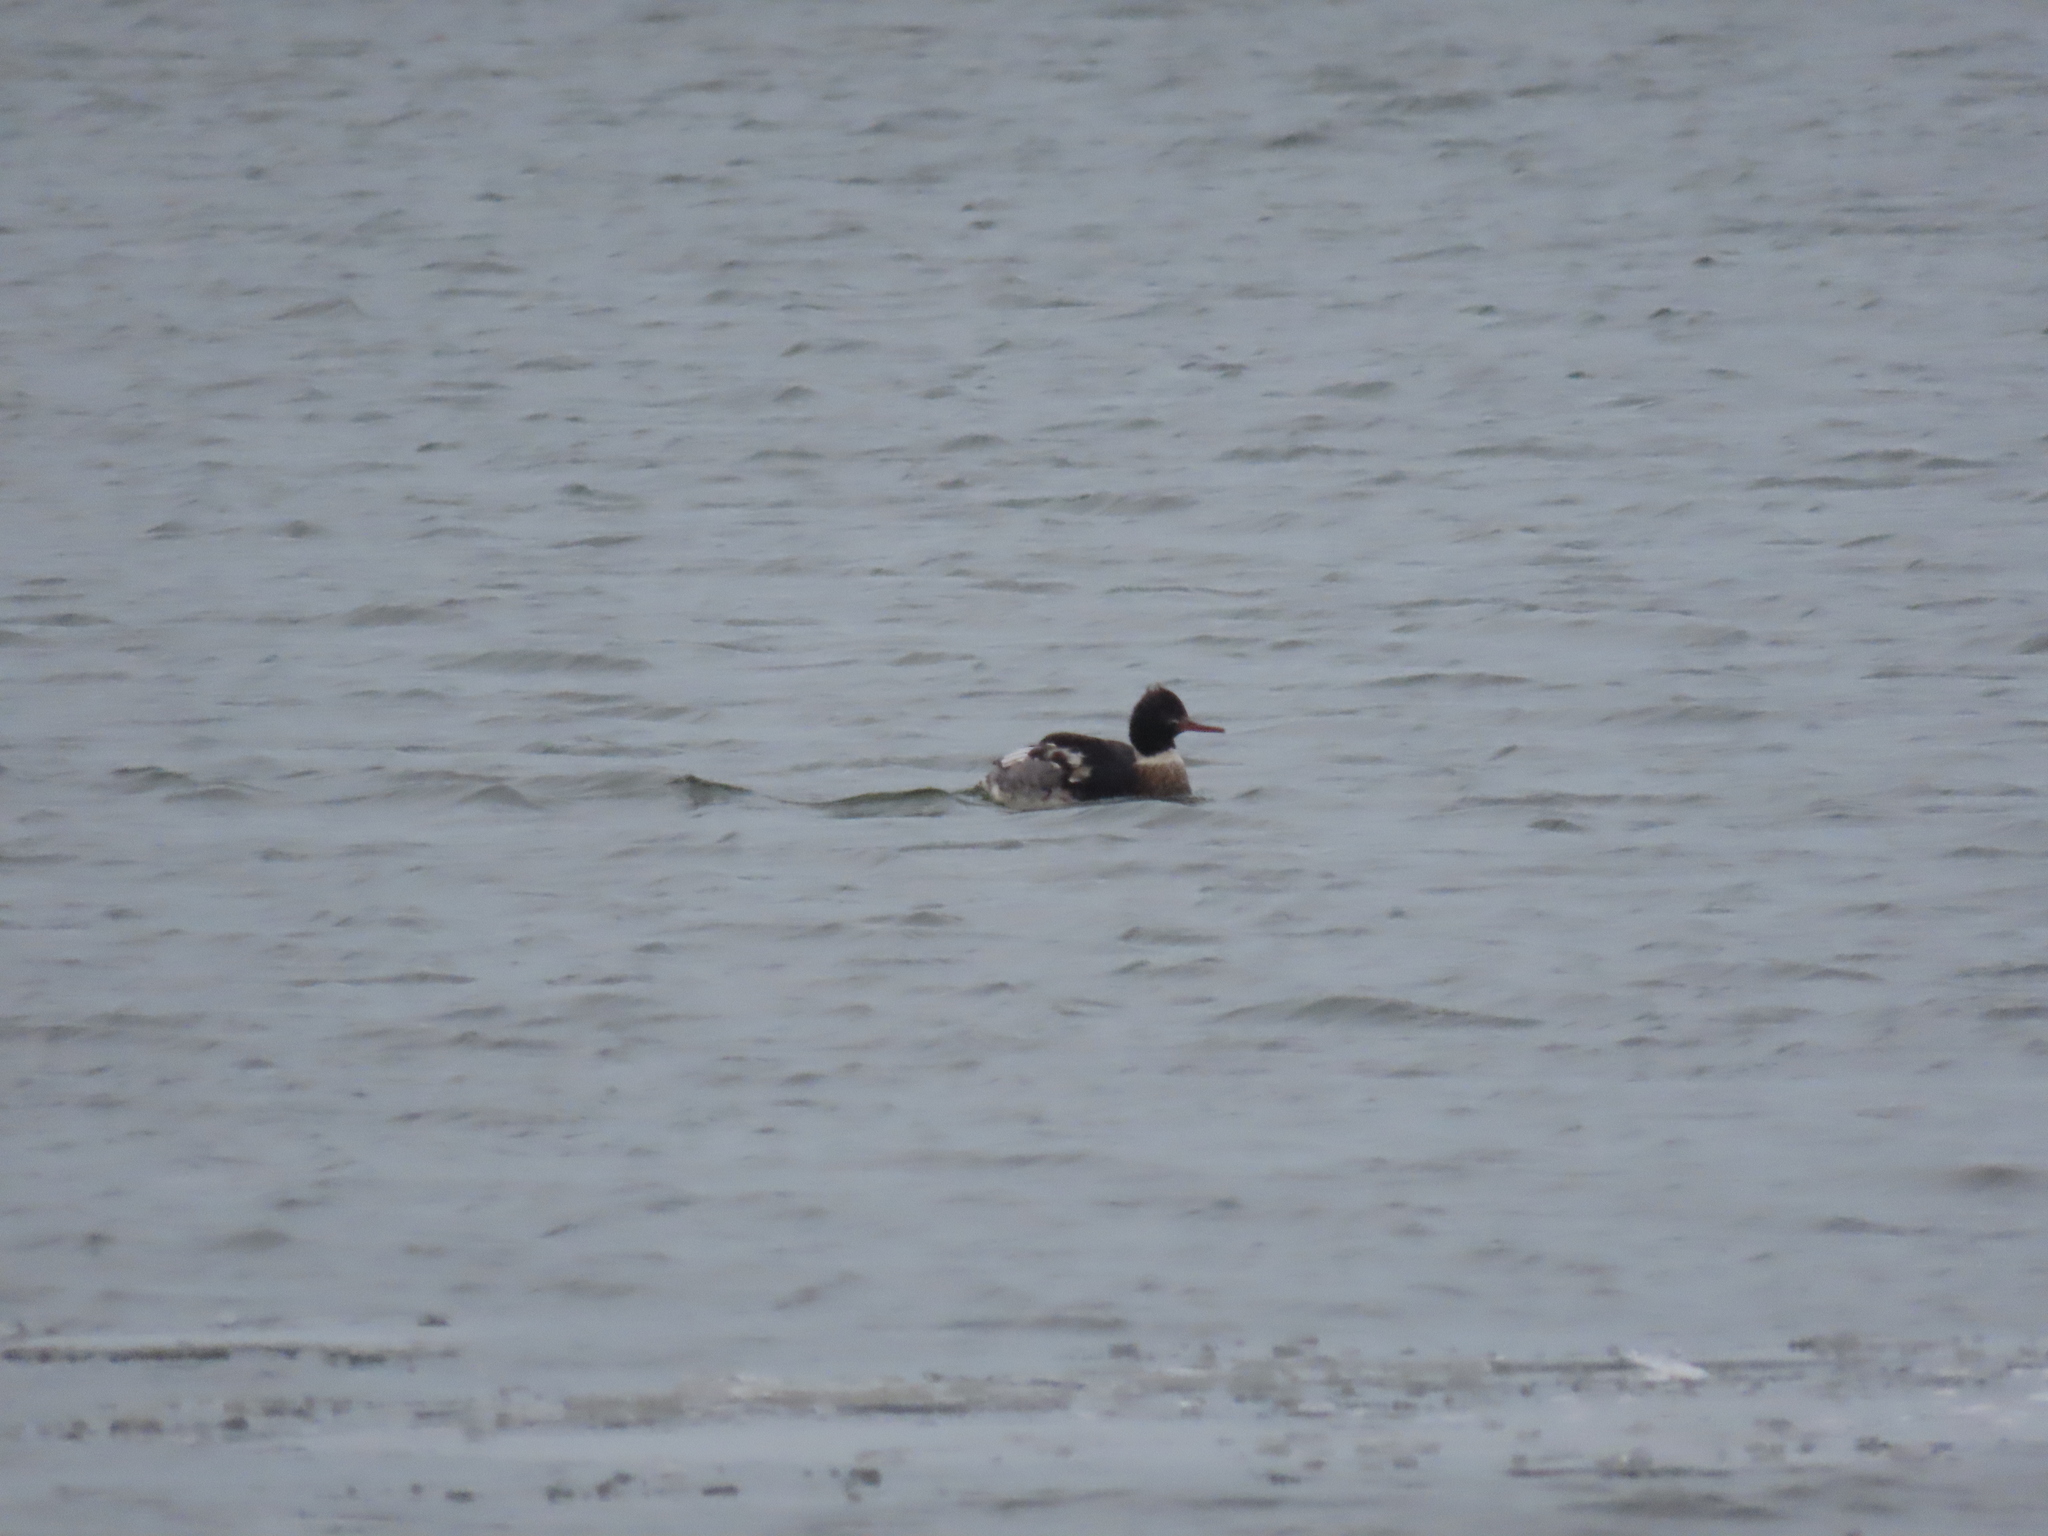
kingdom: Animalia
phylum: Chordata
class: Aves
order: Anseriformes
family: Anatidae
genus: Mergus
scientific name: Mergus serrator
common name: Red-breasted merganser
